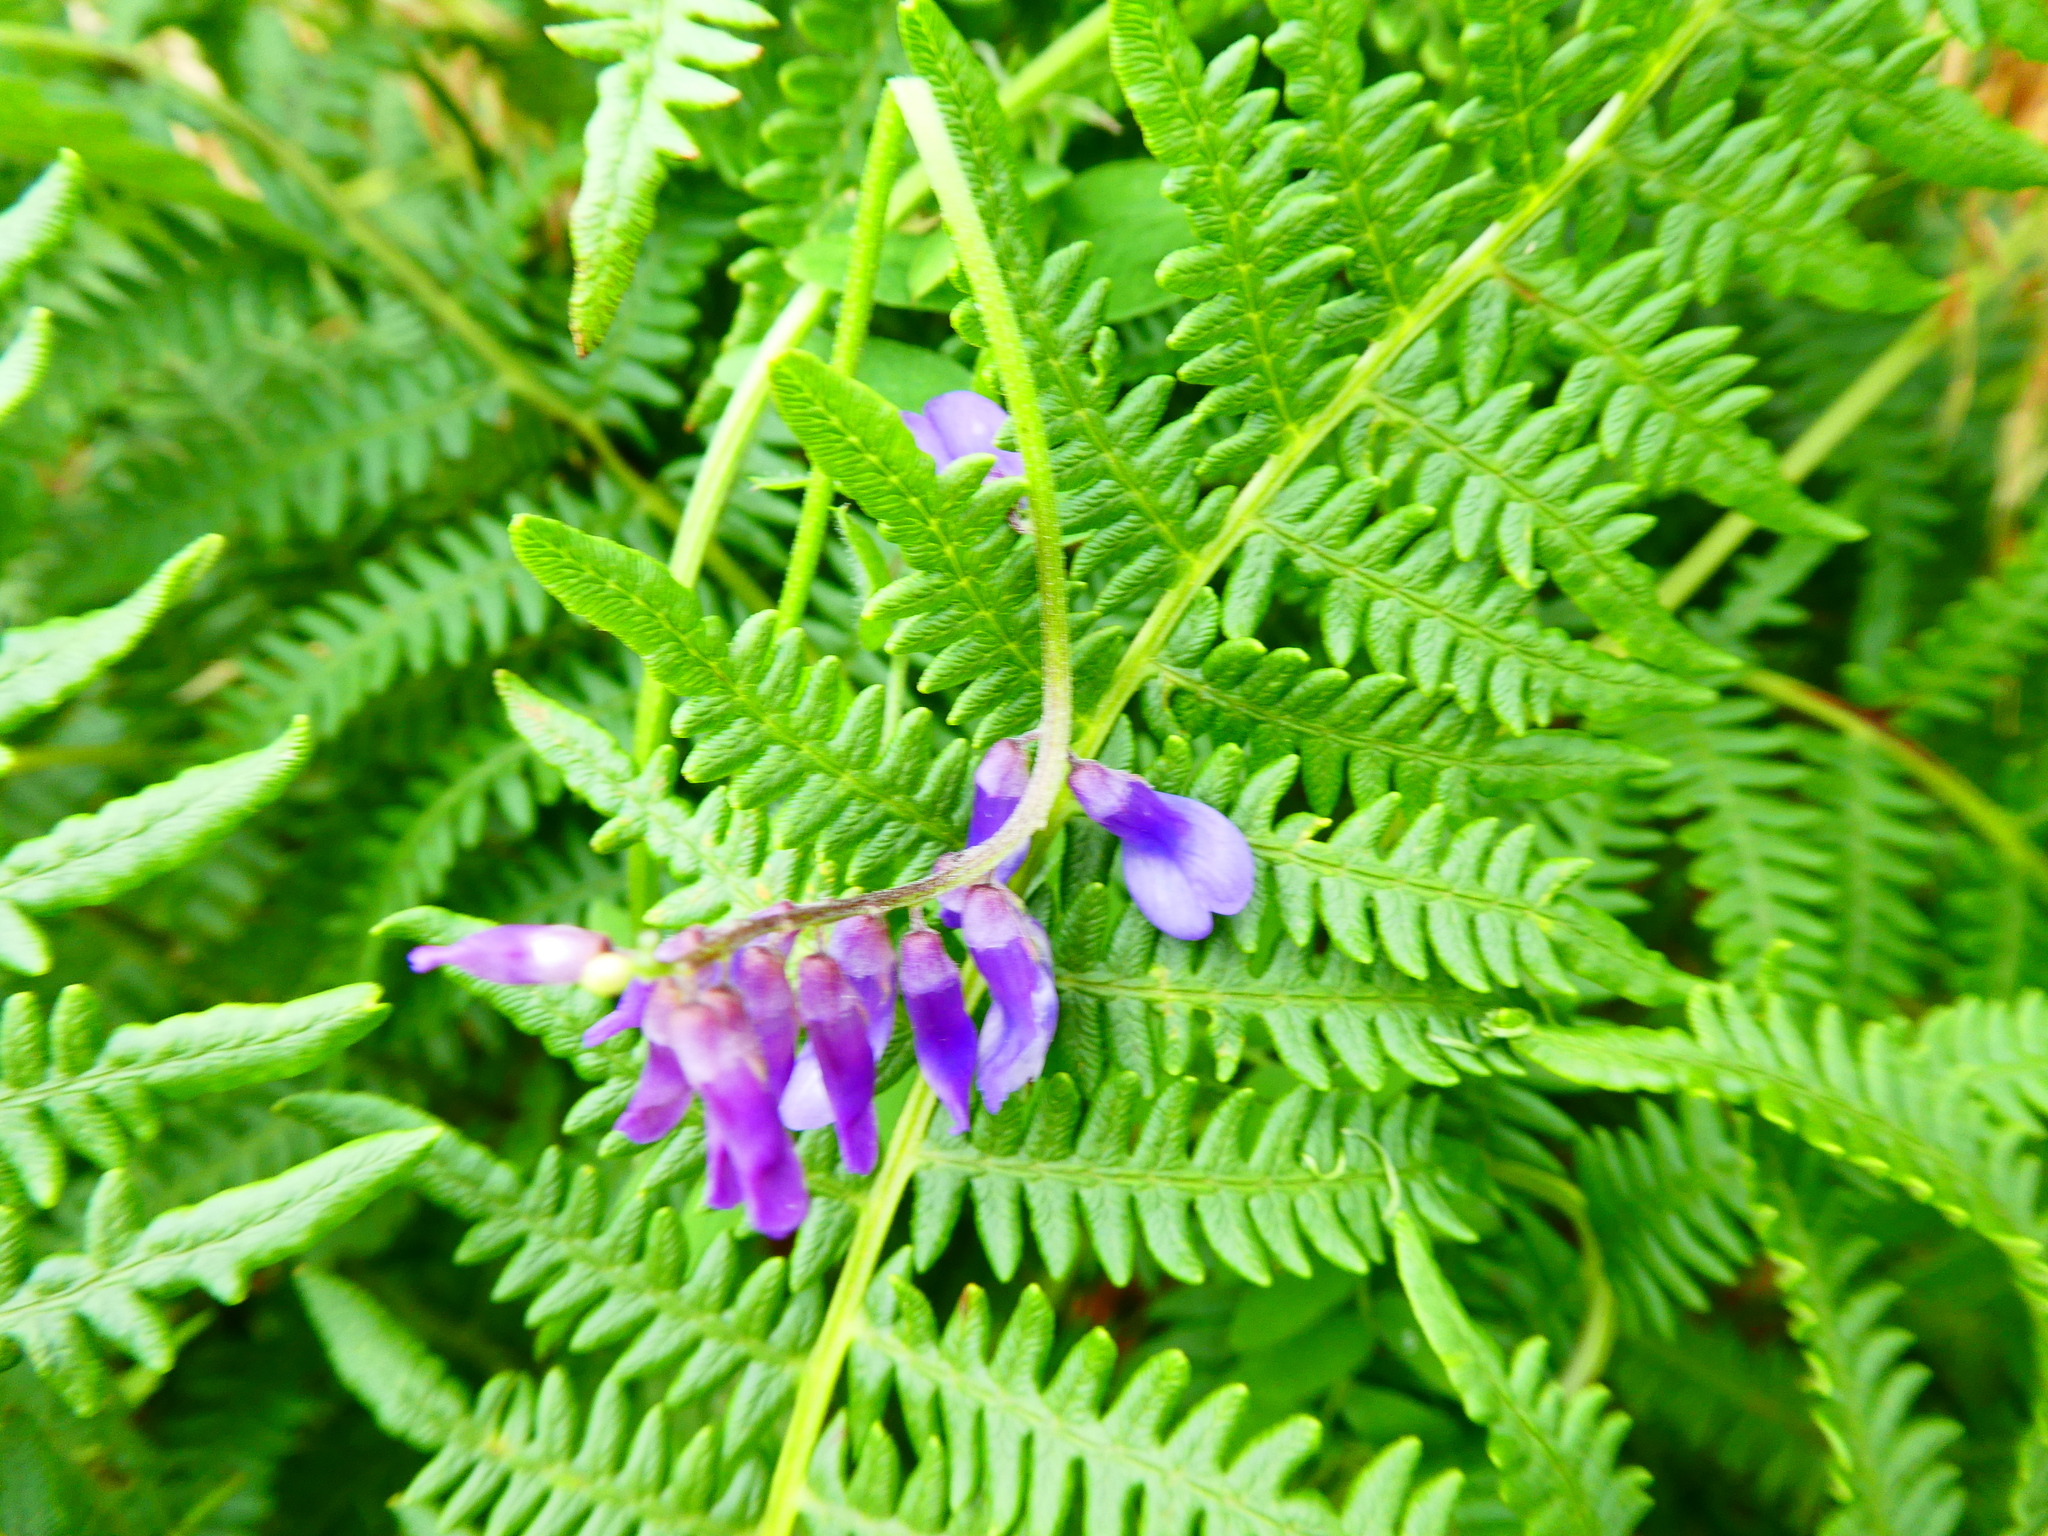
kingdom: Plantae
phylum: Tracheophyta
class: Magnoliopsida
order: Fabales
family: Fabaceae
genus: Vicia
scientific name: Vicia cracca
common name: Bird vetch
